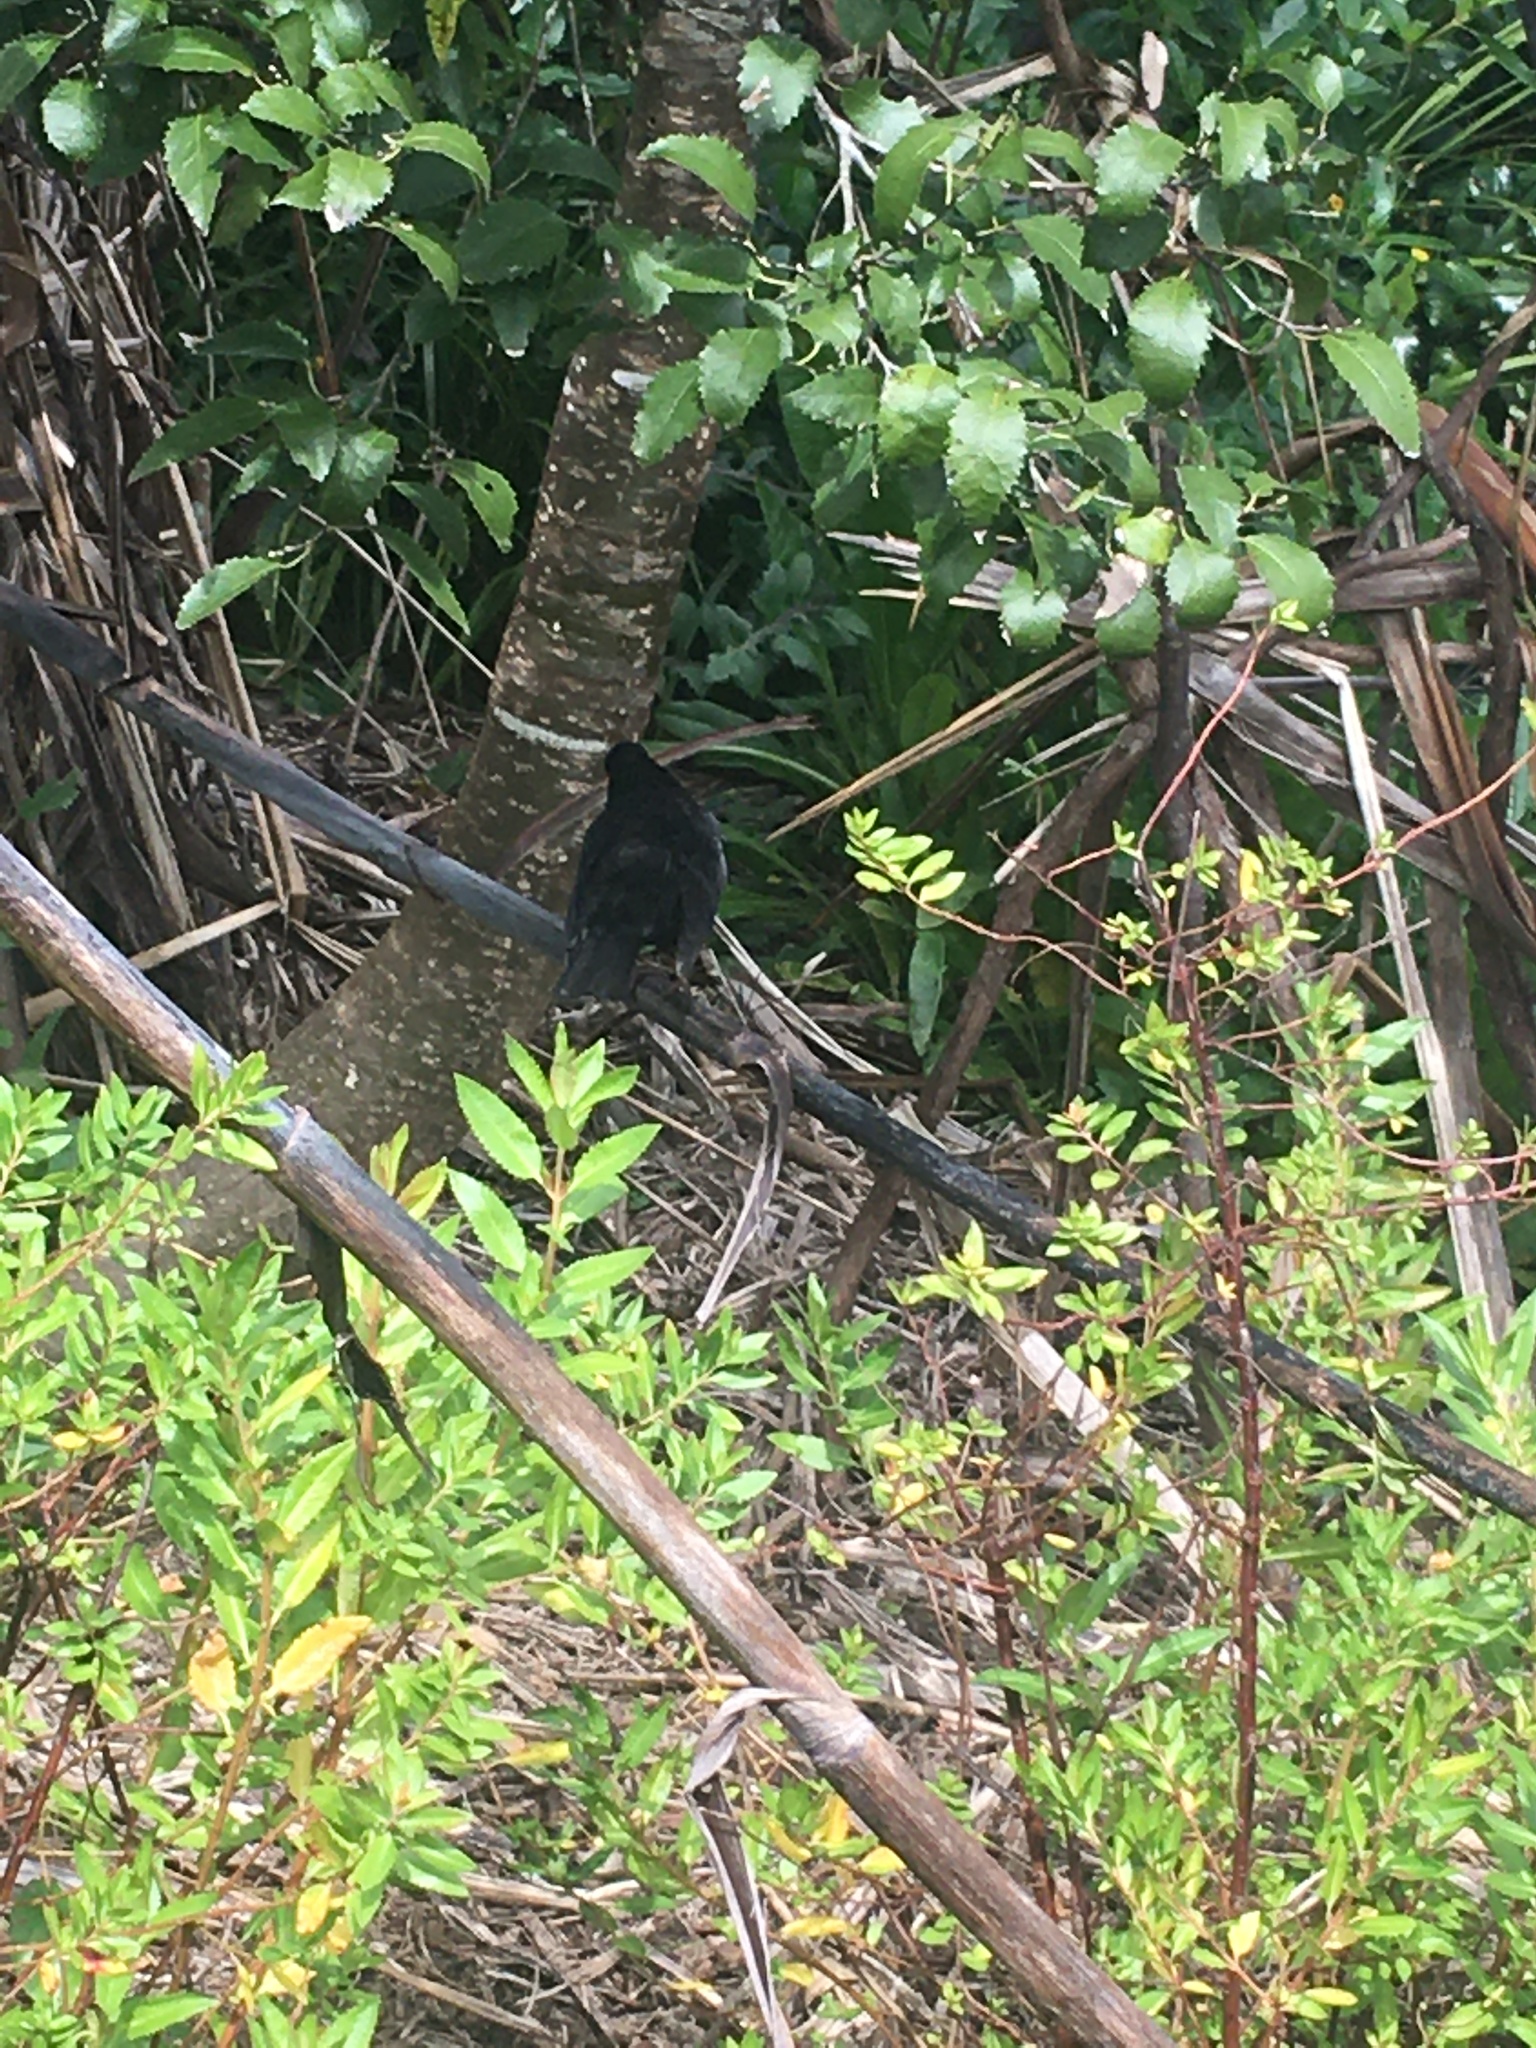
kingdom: Animalia
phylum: Chordata
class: Aves
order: Passeriformes
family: Turdidae
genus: Turdus
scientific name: Turdus merula
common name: Common blackbird
